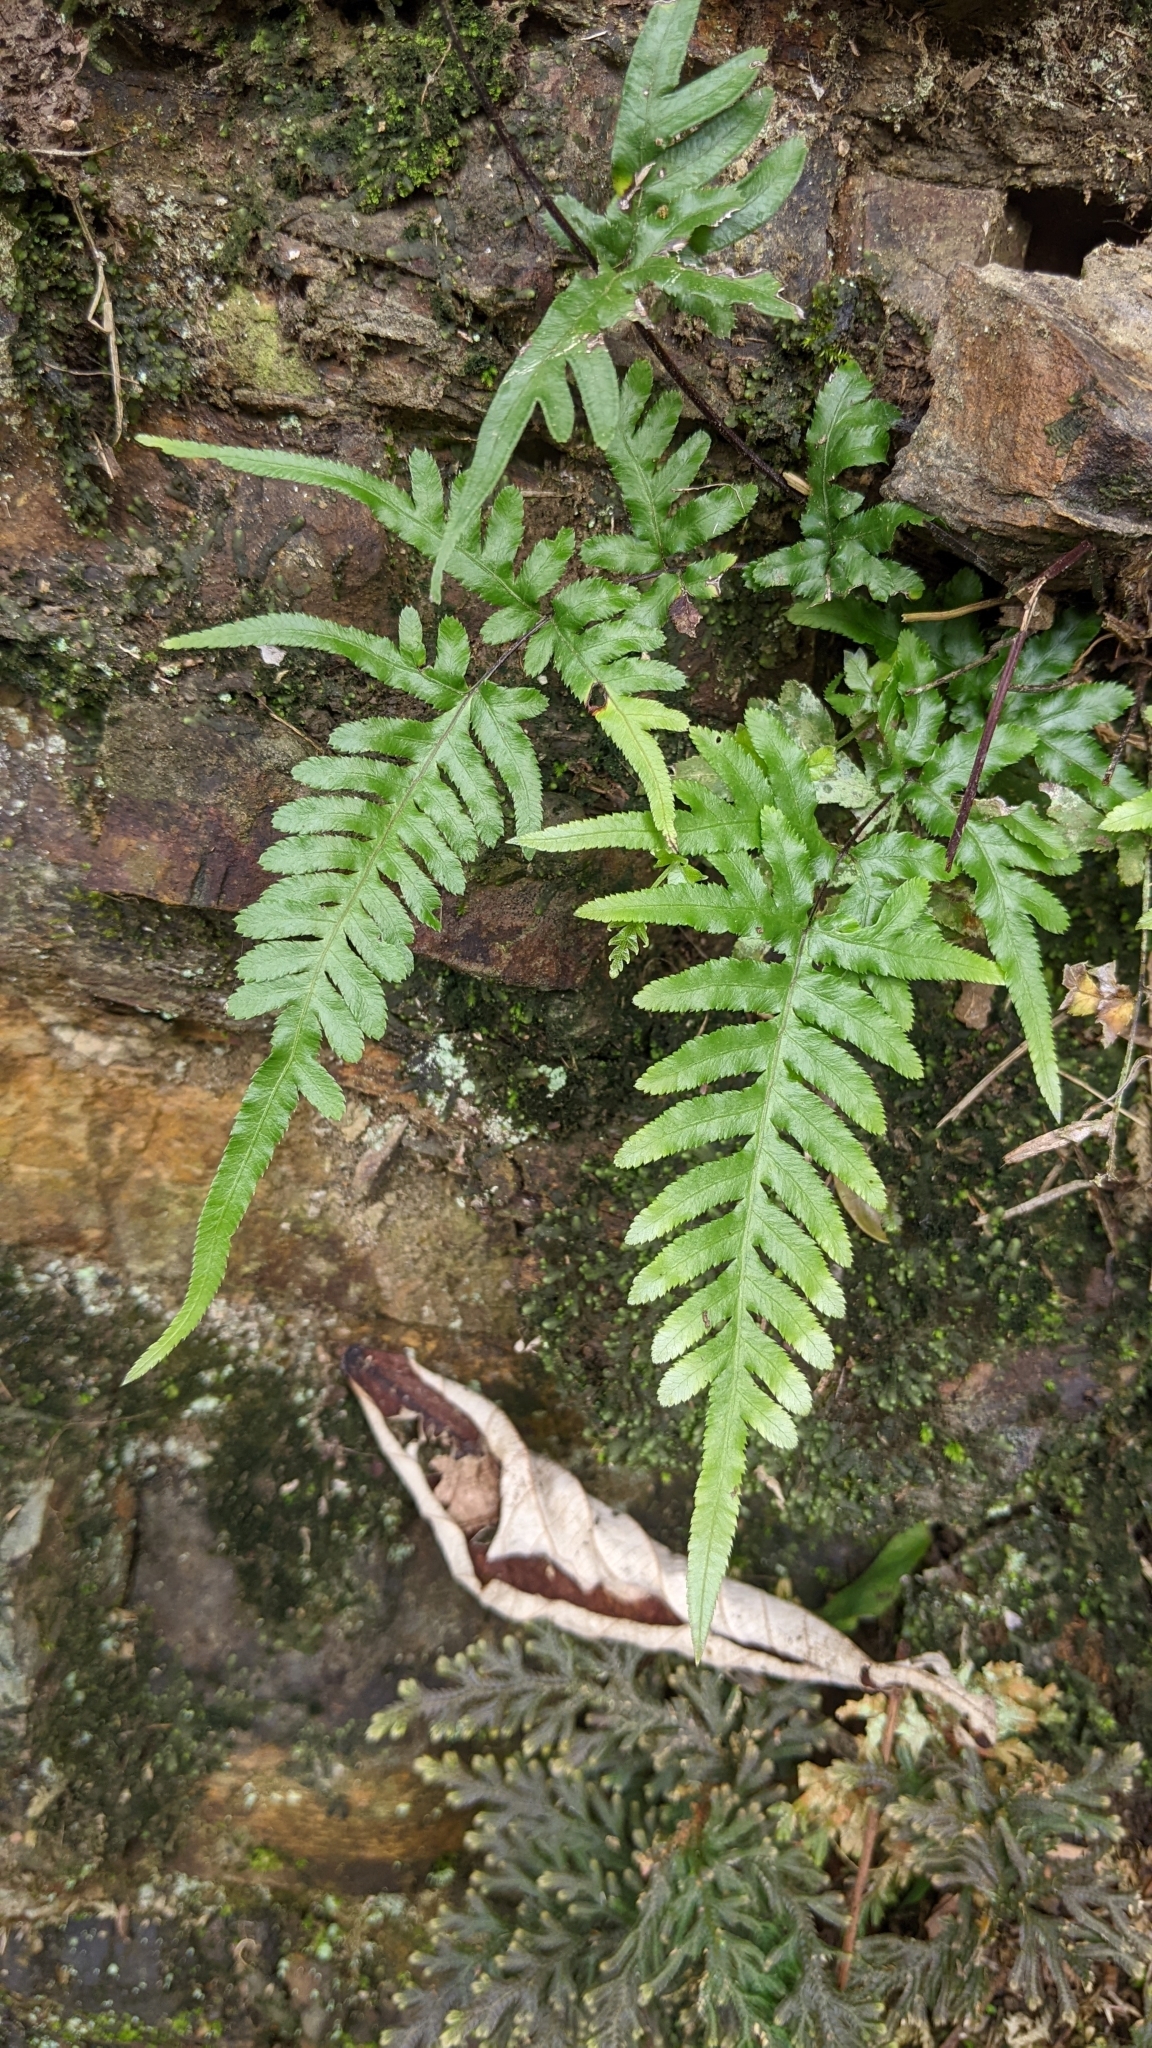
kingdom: Plantae
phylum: Tracheophyta
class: Polypodiopsida
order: Polypodiales
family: Pteridaceae
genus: Pteris
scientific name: Pteris dispar
